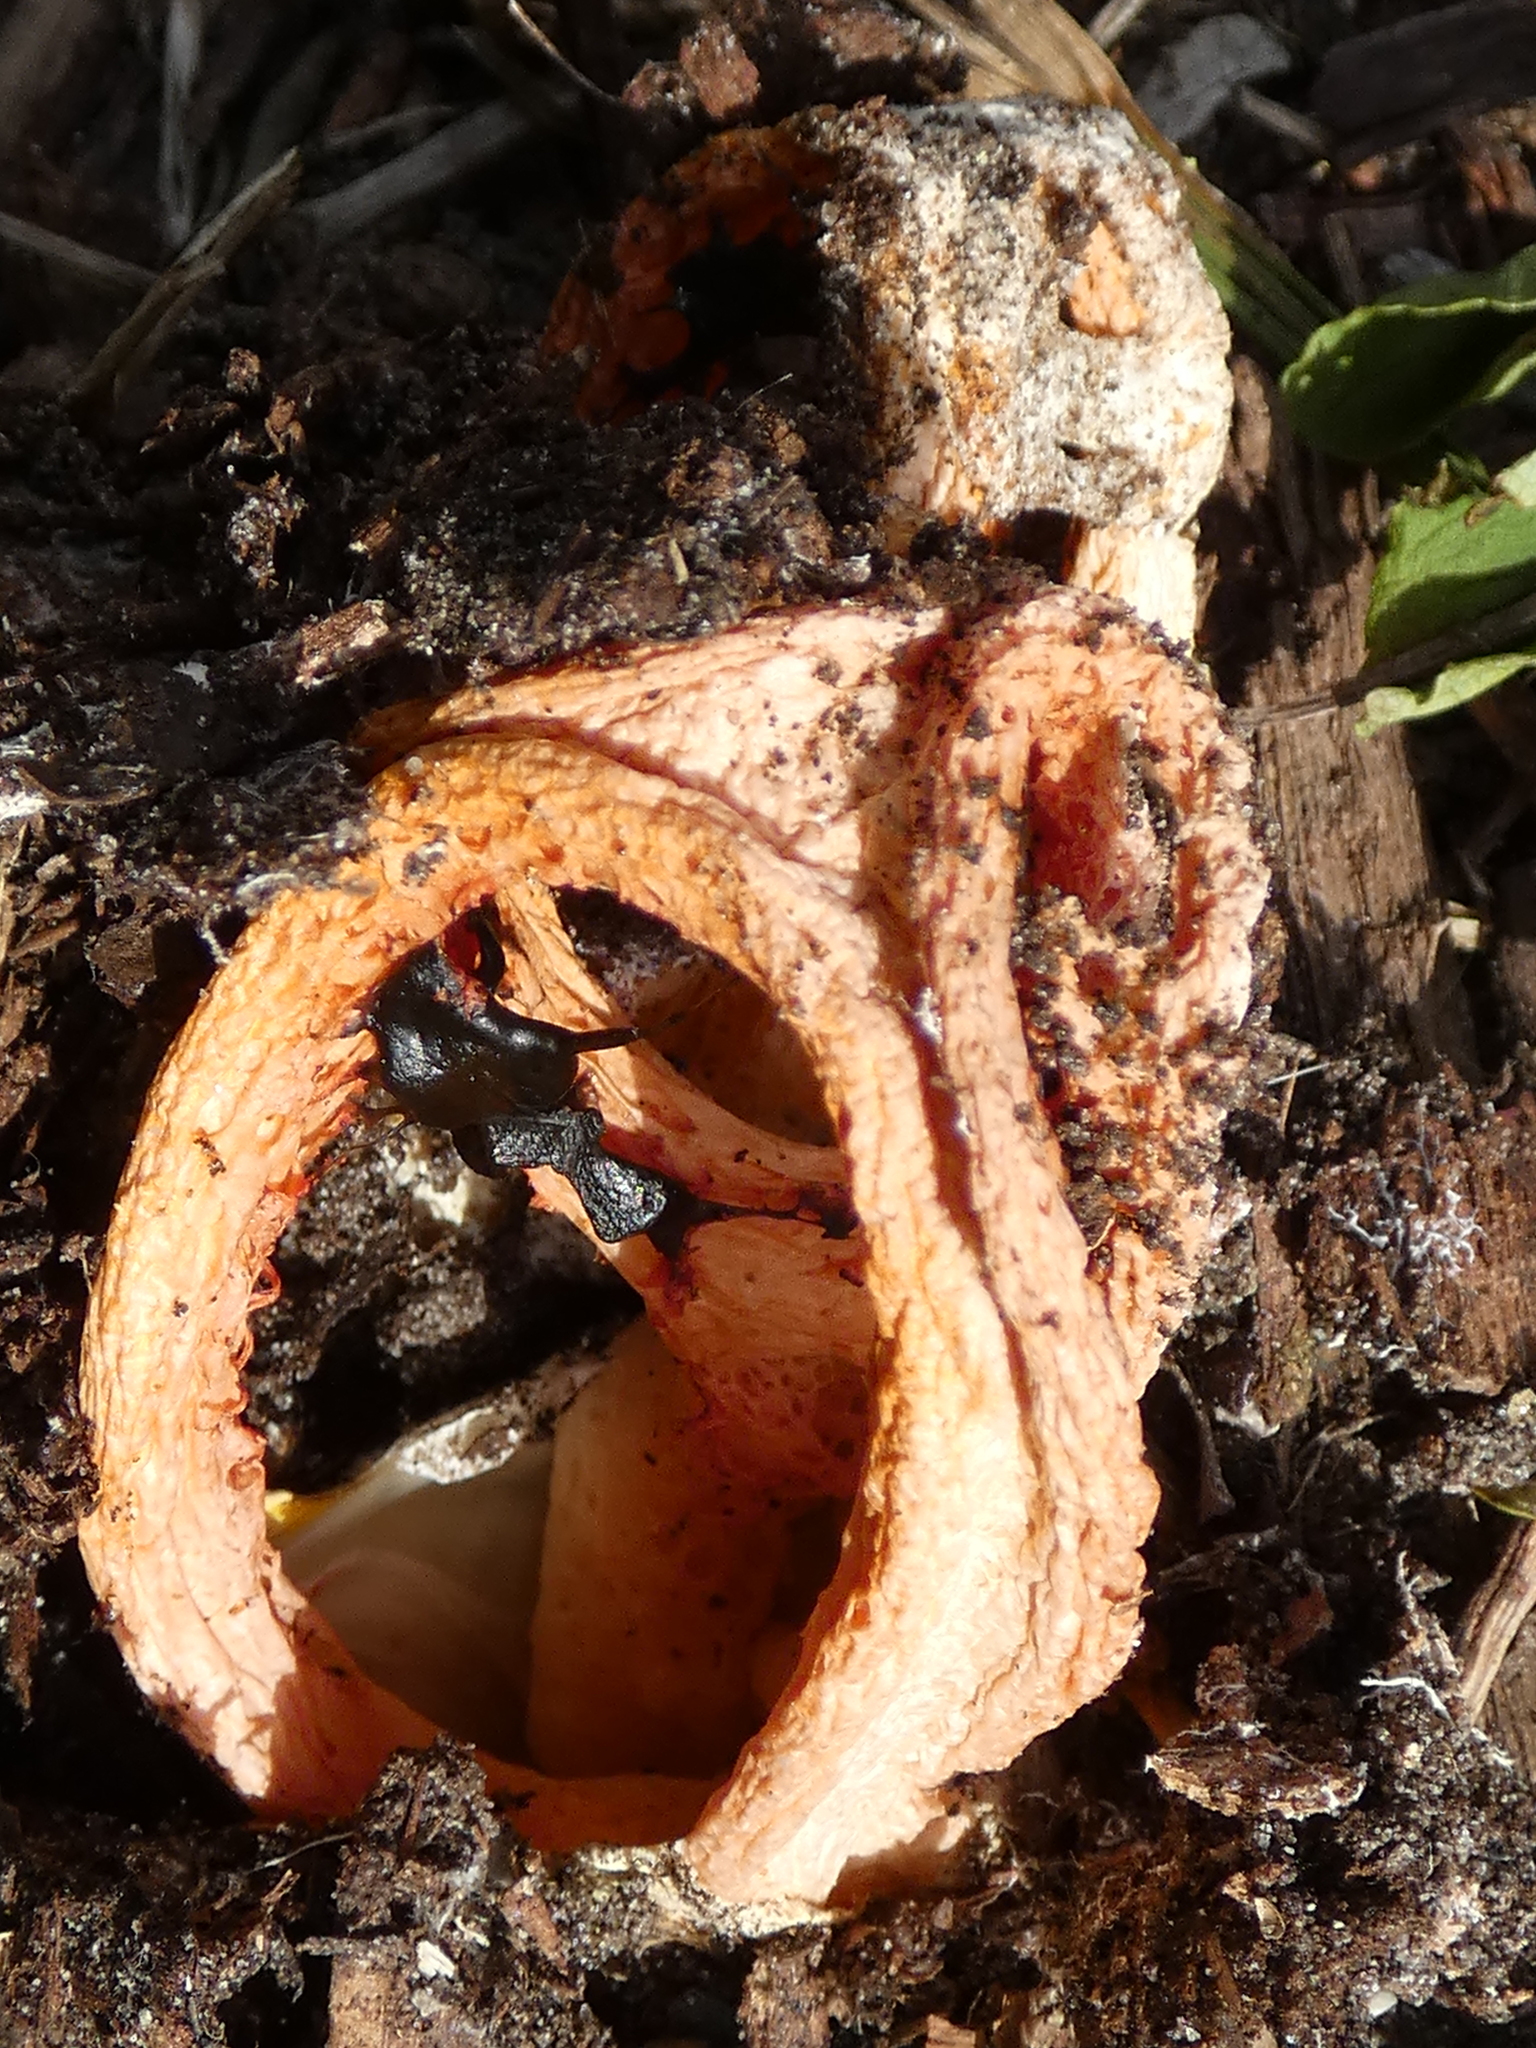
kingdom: Fungi
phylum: Basidiomycota
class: Agaricomycetes
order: Phallales
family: Phallaceae
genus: Clathrus
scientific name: Clathrus columnatus
